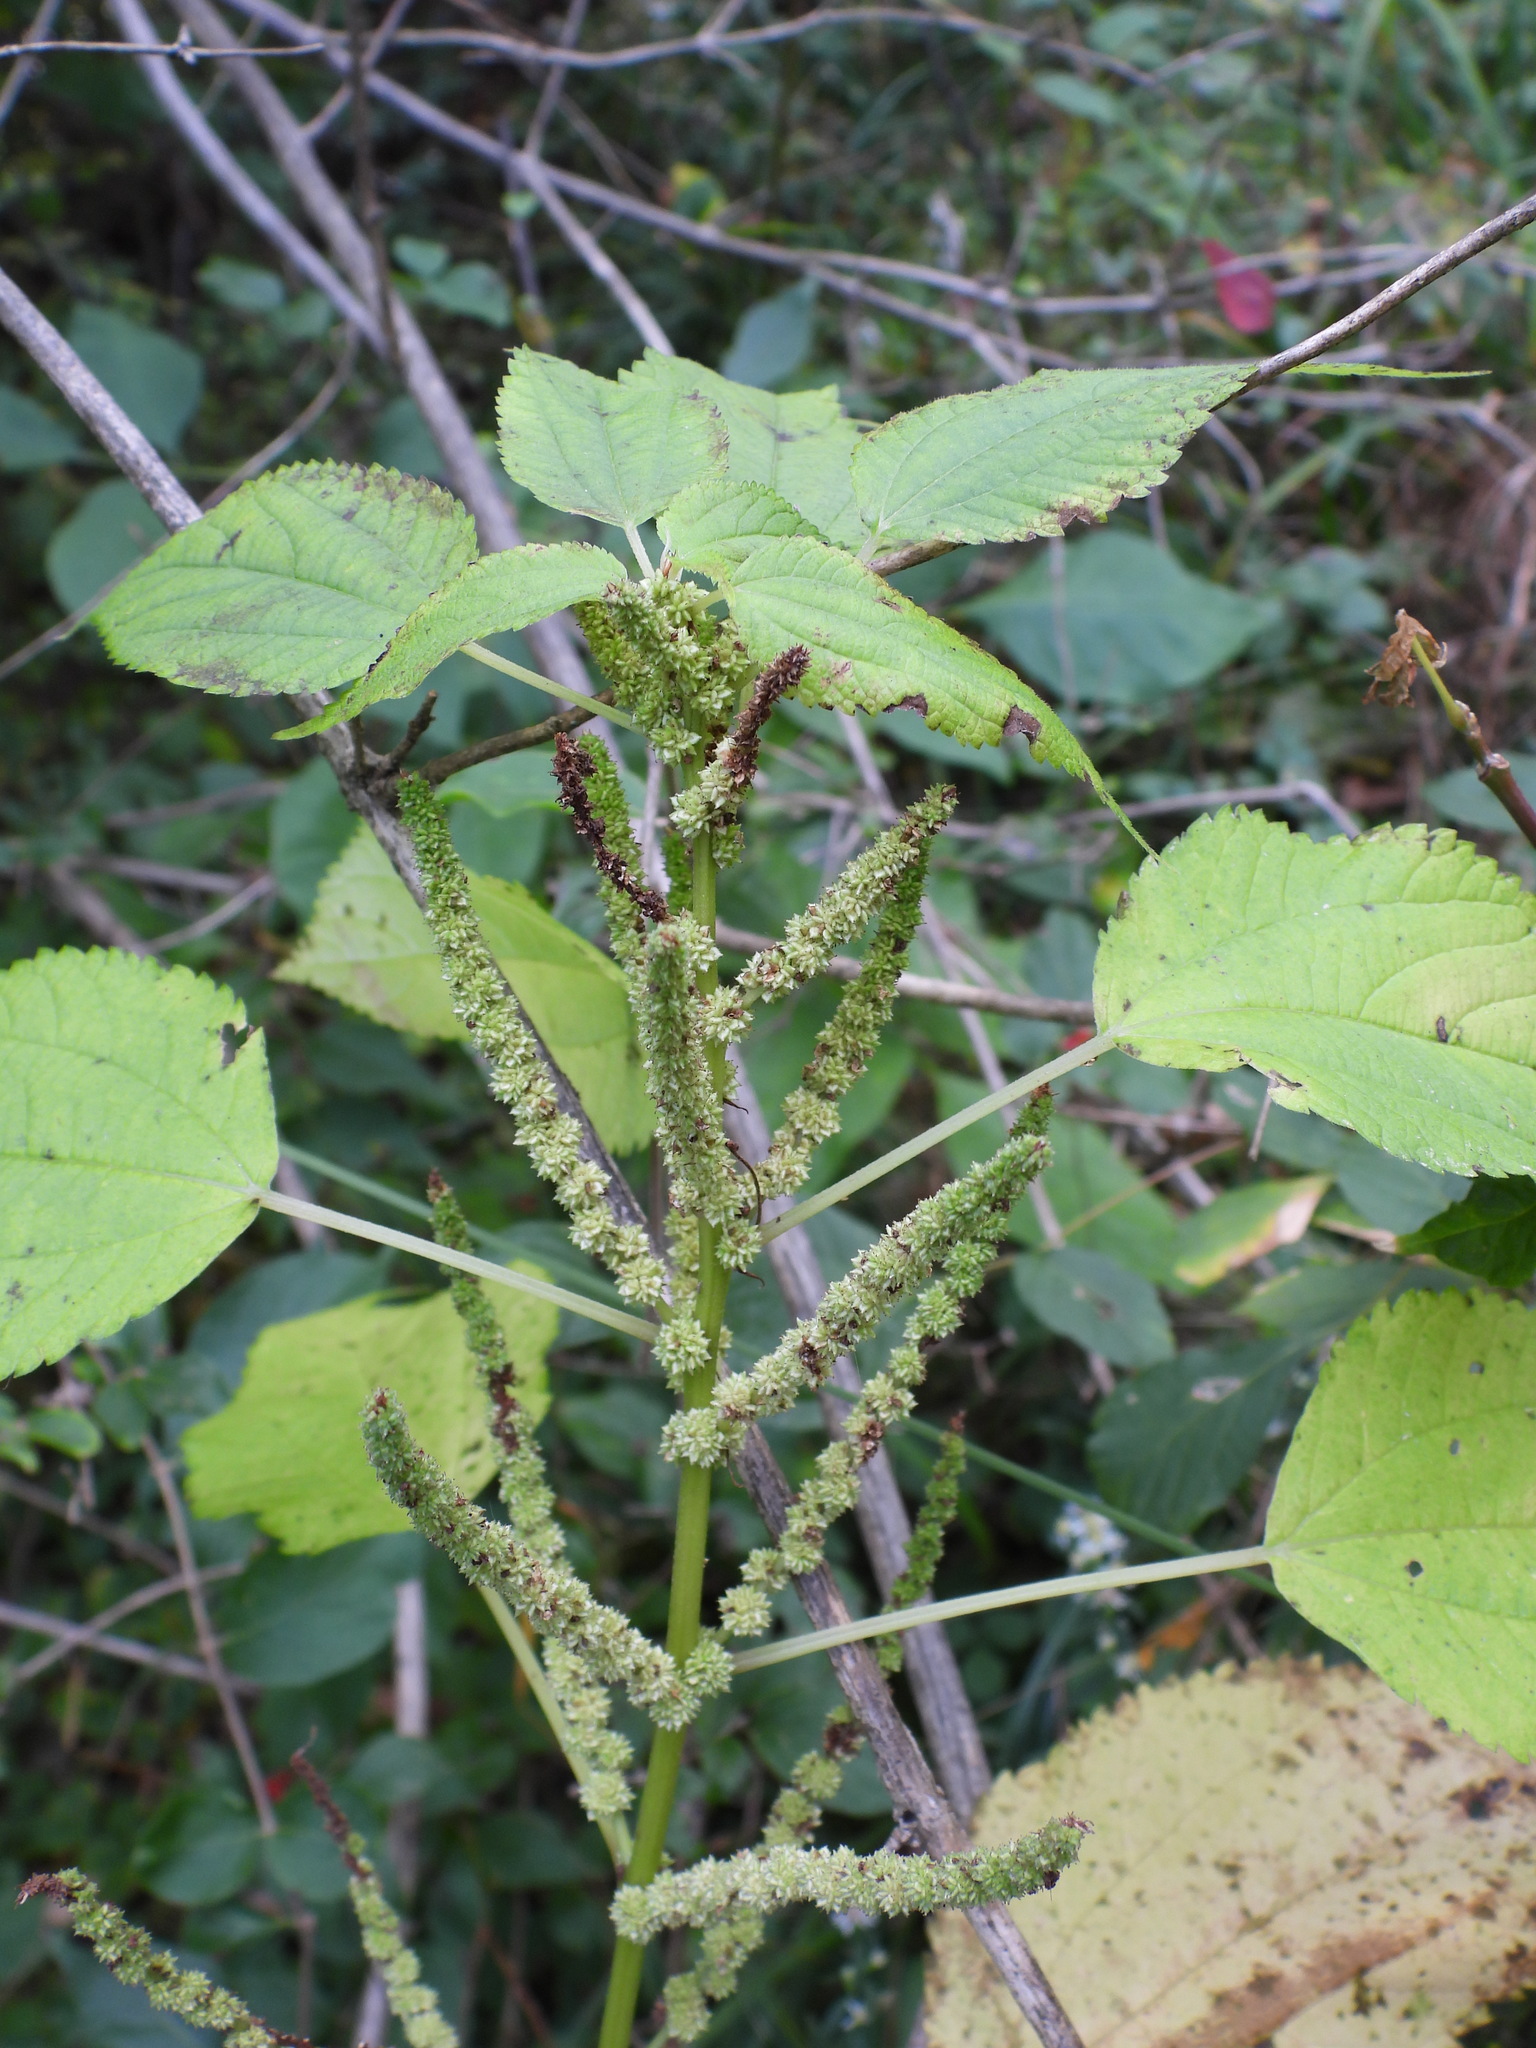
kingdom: Plantae
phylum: Tracheophyta
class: Magnoliopsida
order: Rosales
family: Urticaceae
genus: Boehmeria
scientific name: Boehmeria cylindrica
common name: Bog-hemp
